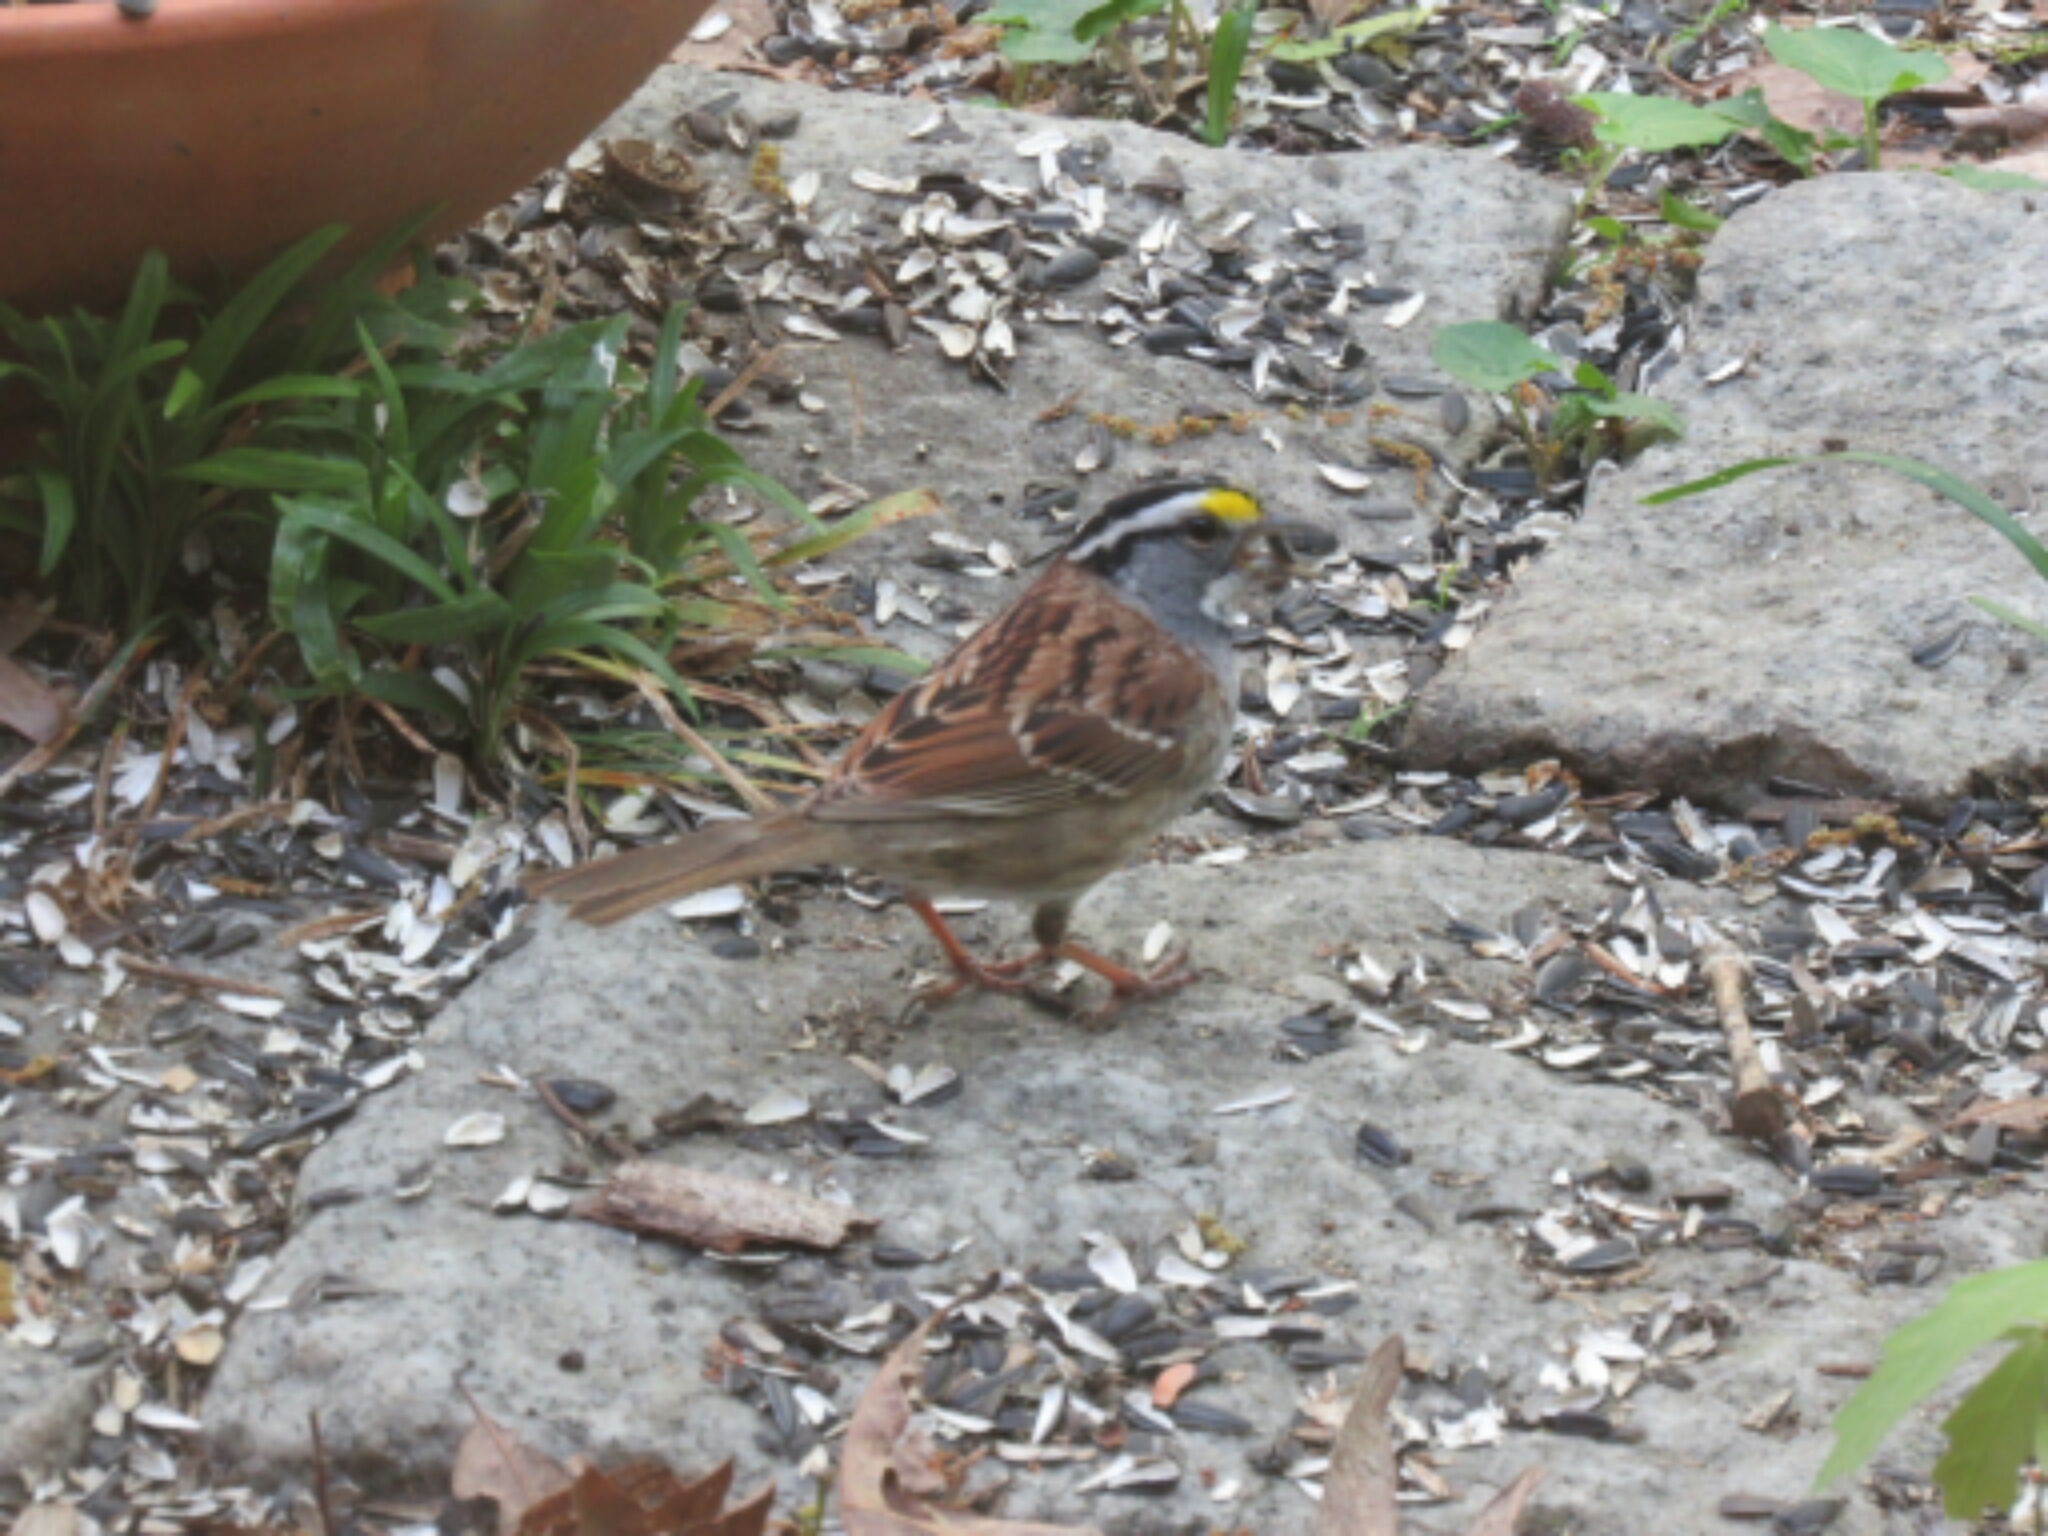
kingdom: Animalia
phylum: Chordata
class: Aves
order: Passeriformes
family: Passerellidae
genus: Zonotrichia
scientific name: Zonotrichia albicollis
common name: White-throated sparrow
